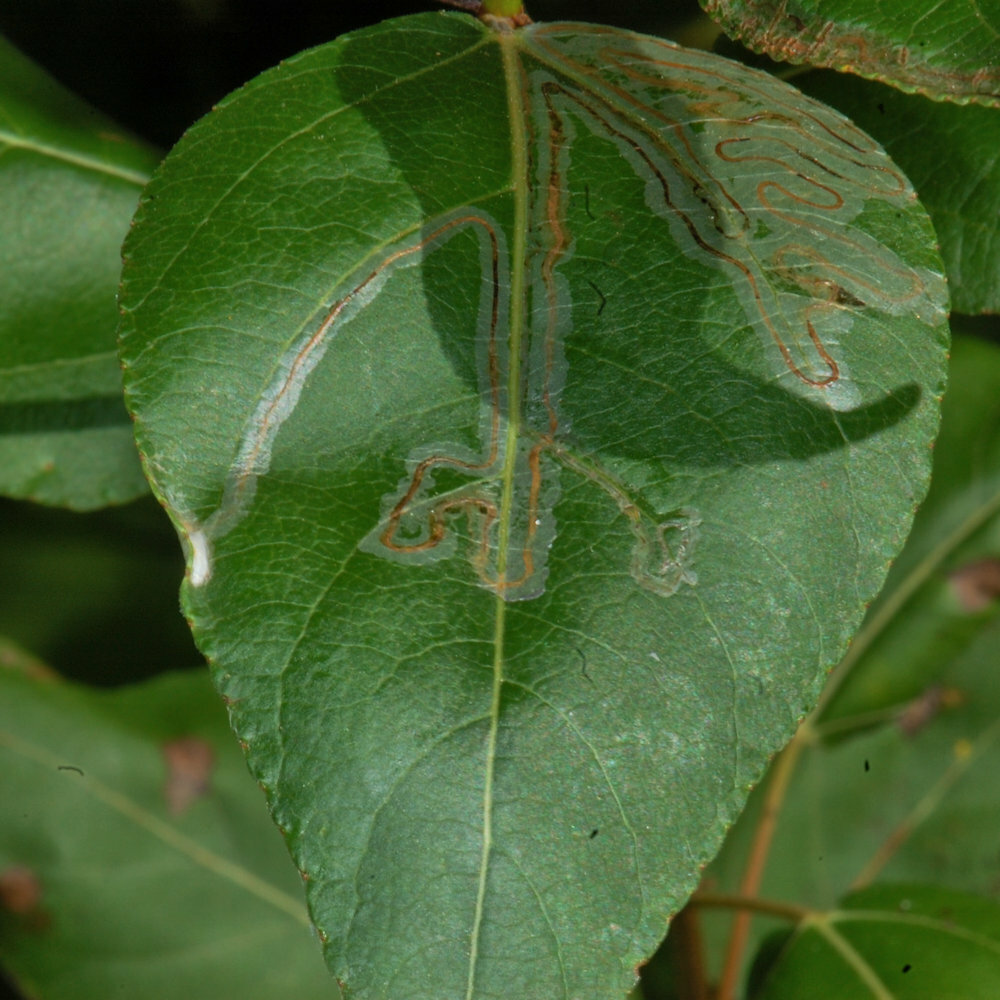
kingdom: Animalia
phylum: Arthropoda
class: Insecta
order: Lepidoptera
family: Gracillariidae
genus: Phyllocnistis
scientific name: Phyllocnistis populiella
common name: Aspen serpentine leafminer moth
